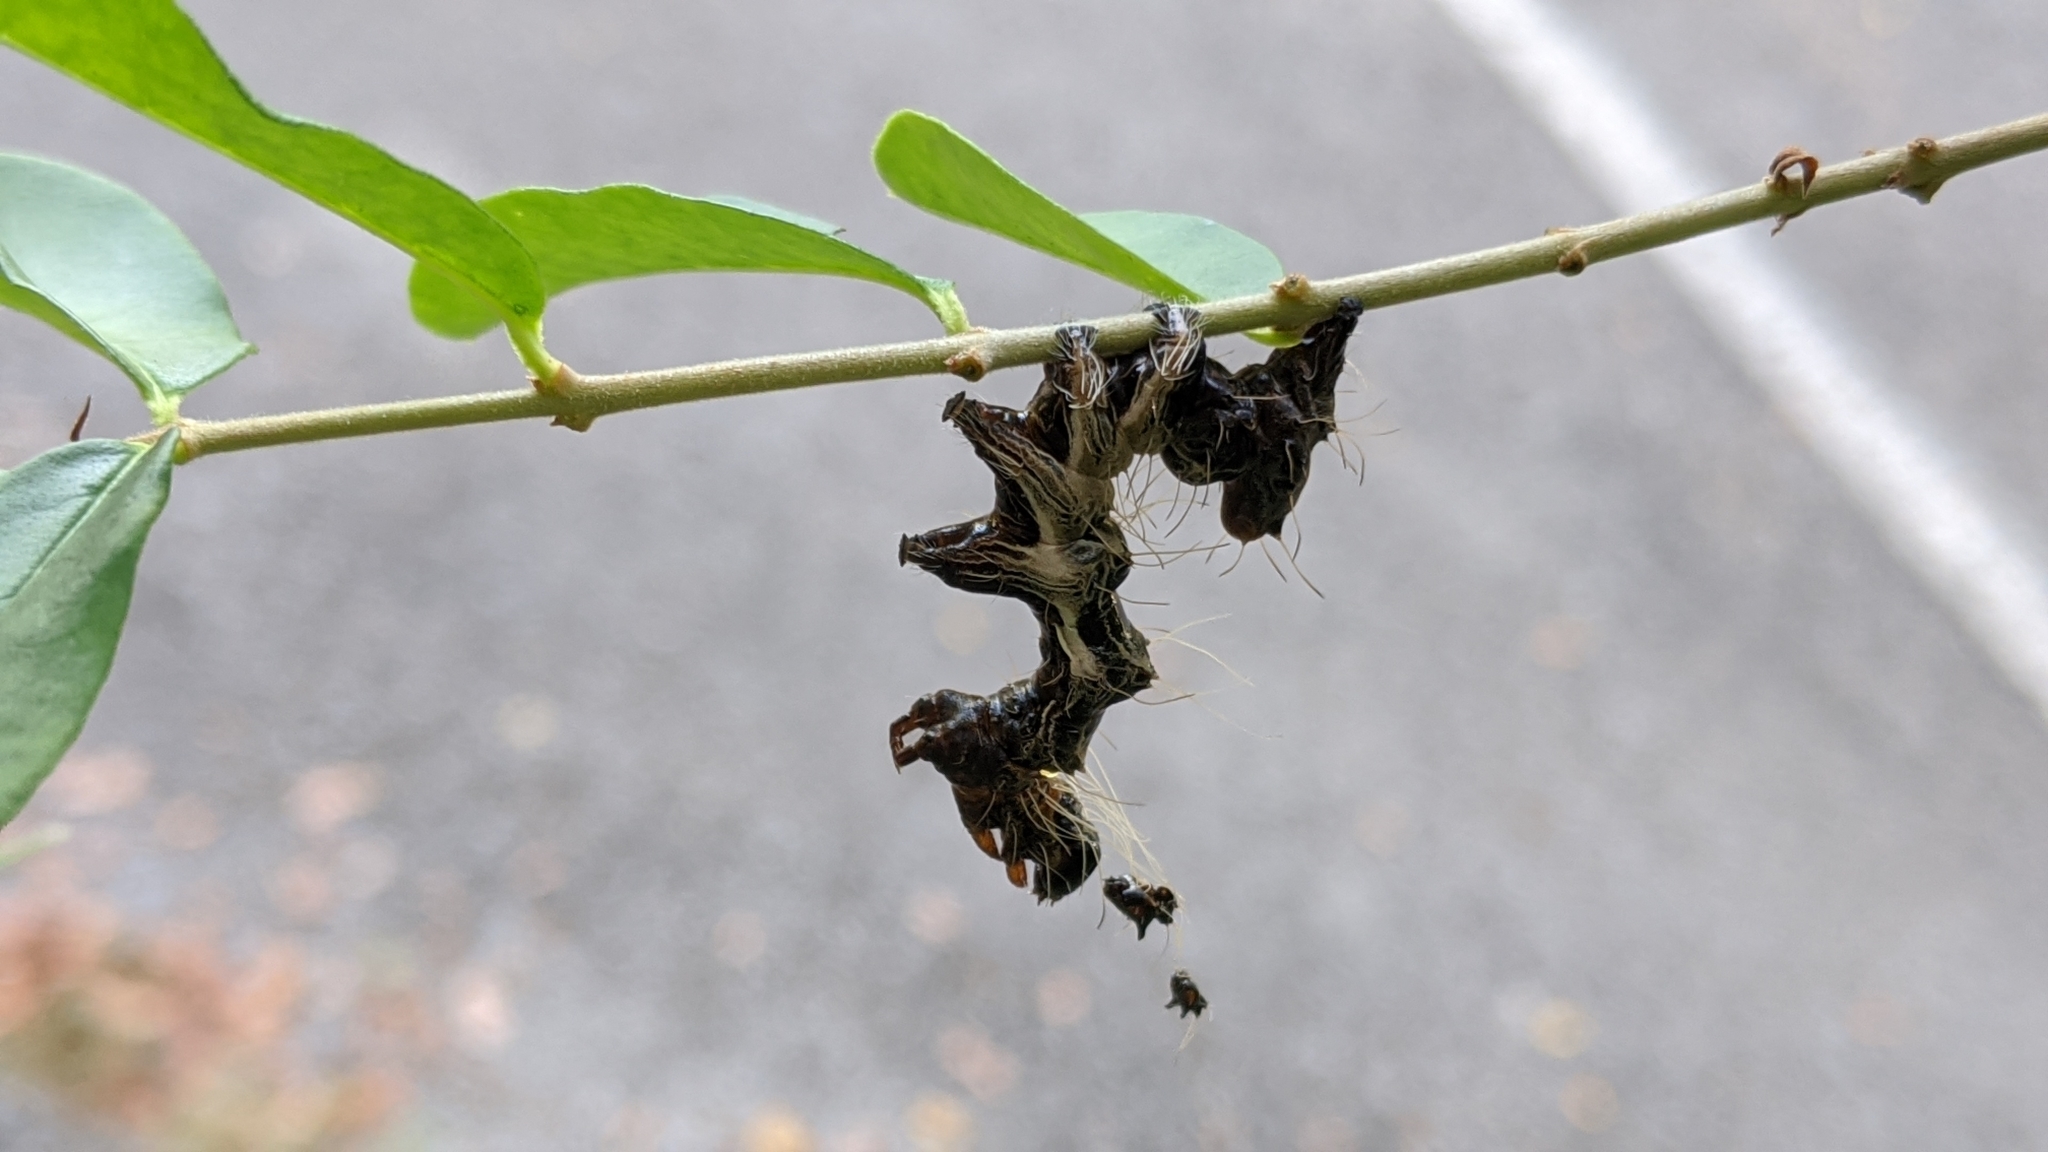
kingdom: Animalia
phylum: Arthropoda
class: Insecta
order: Lepidoptera
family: Noctuidae
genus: Harrisimemna
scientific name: Harrisimemna trisignata
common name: Harris threespot
